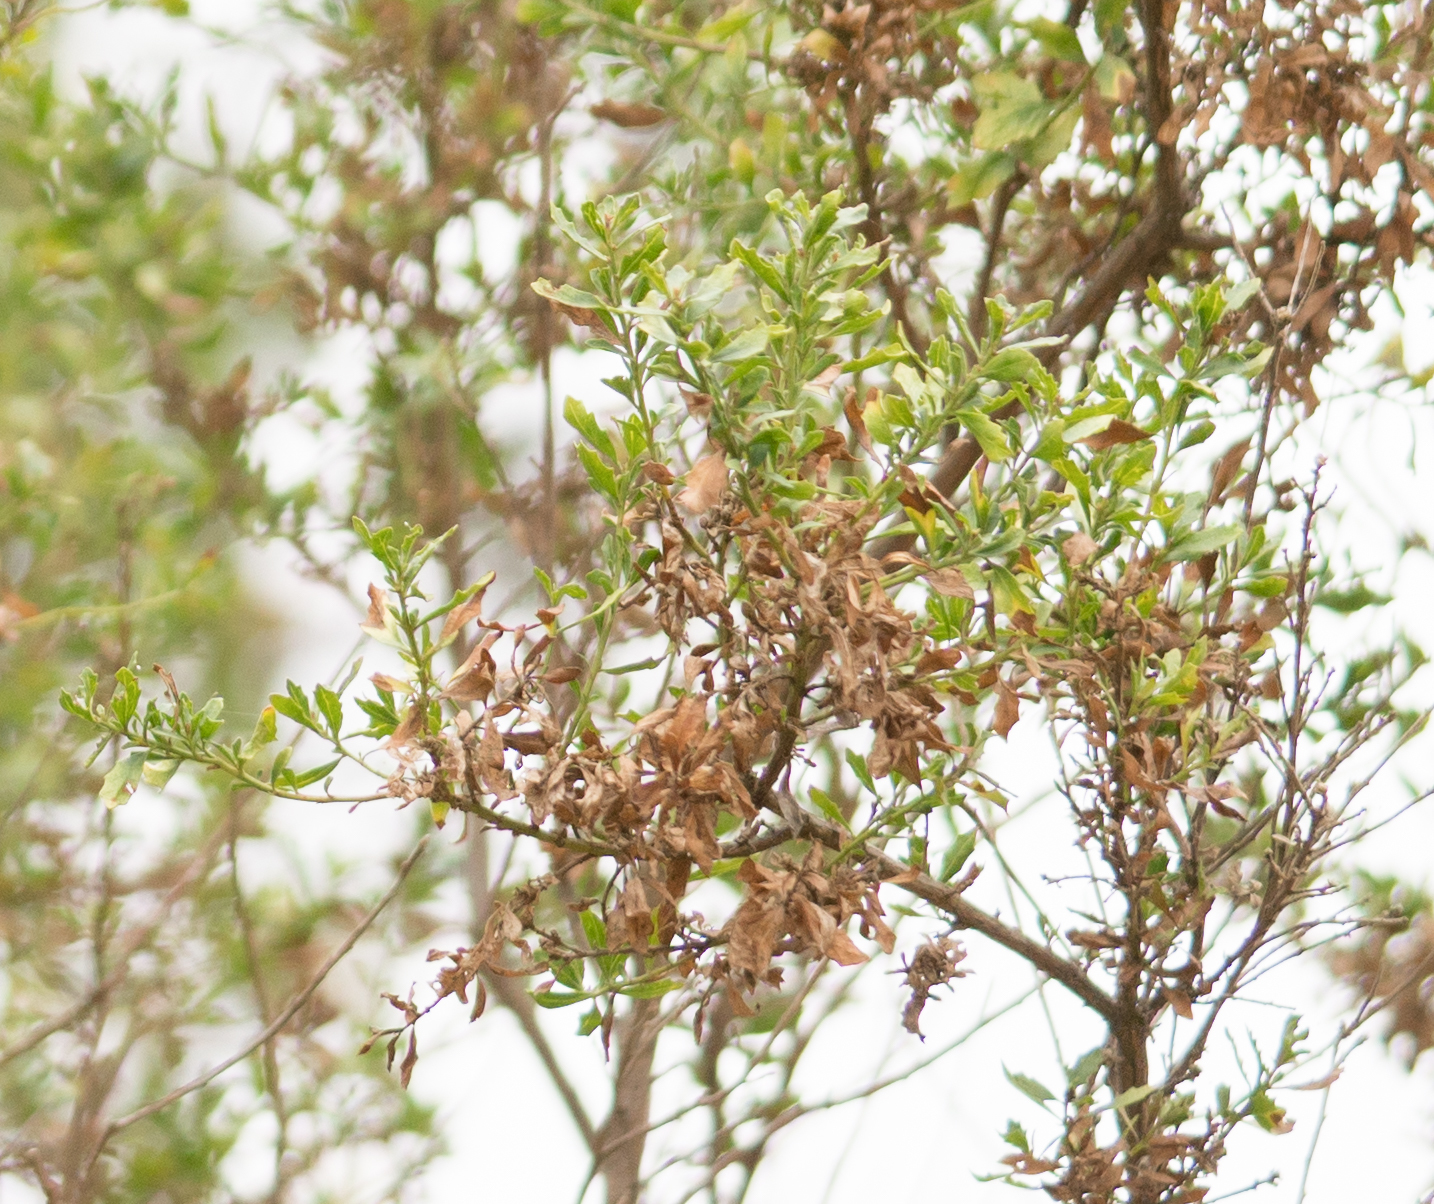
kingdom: Plantae
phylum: Tracheophyta
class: Magnoliopsida
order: Asterales
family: Asteraceae
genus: Baccharis
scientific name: Baccharis pilularis
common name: Coyotebrush
